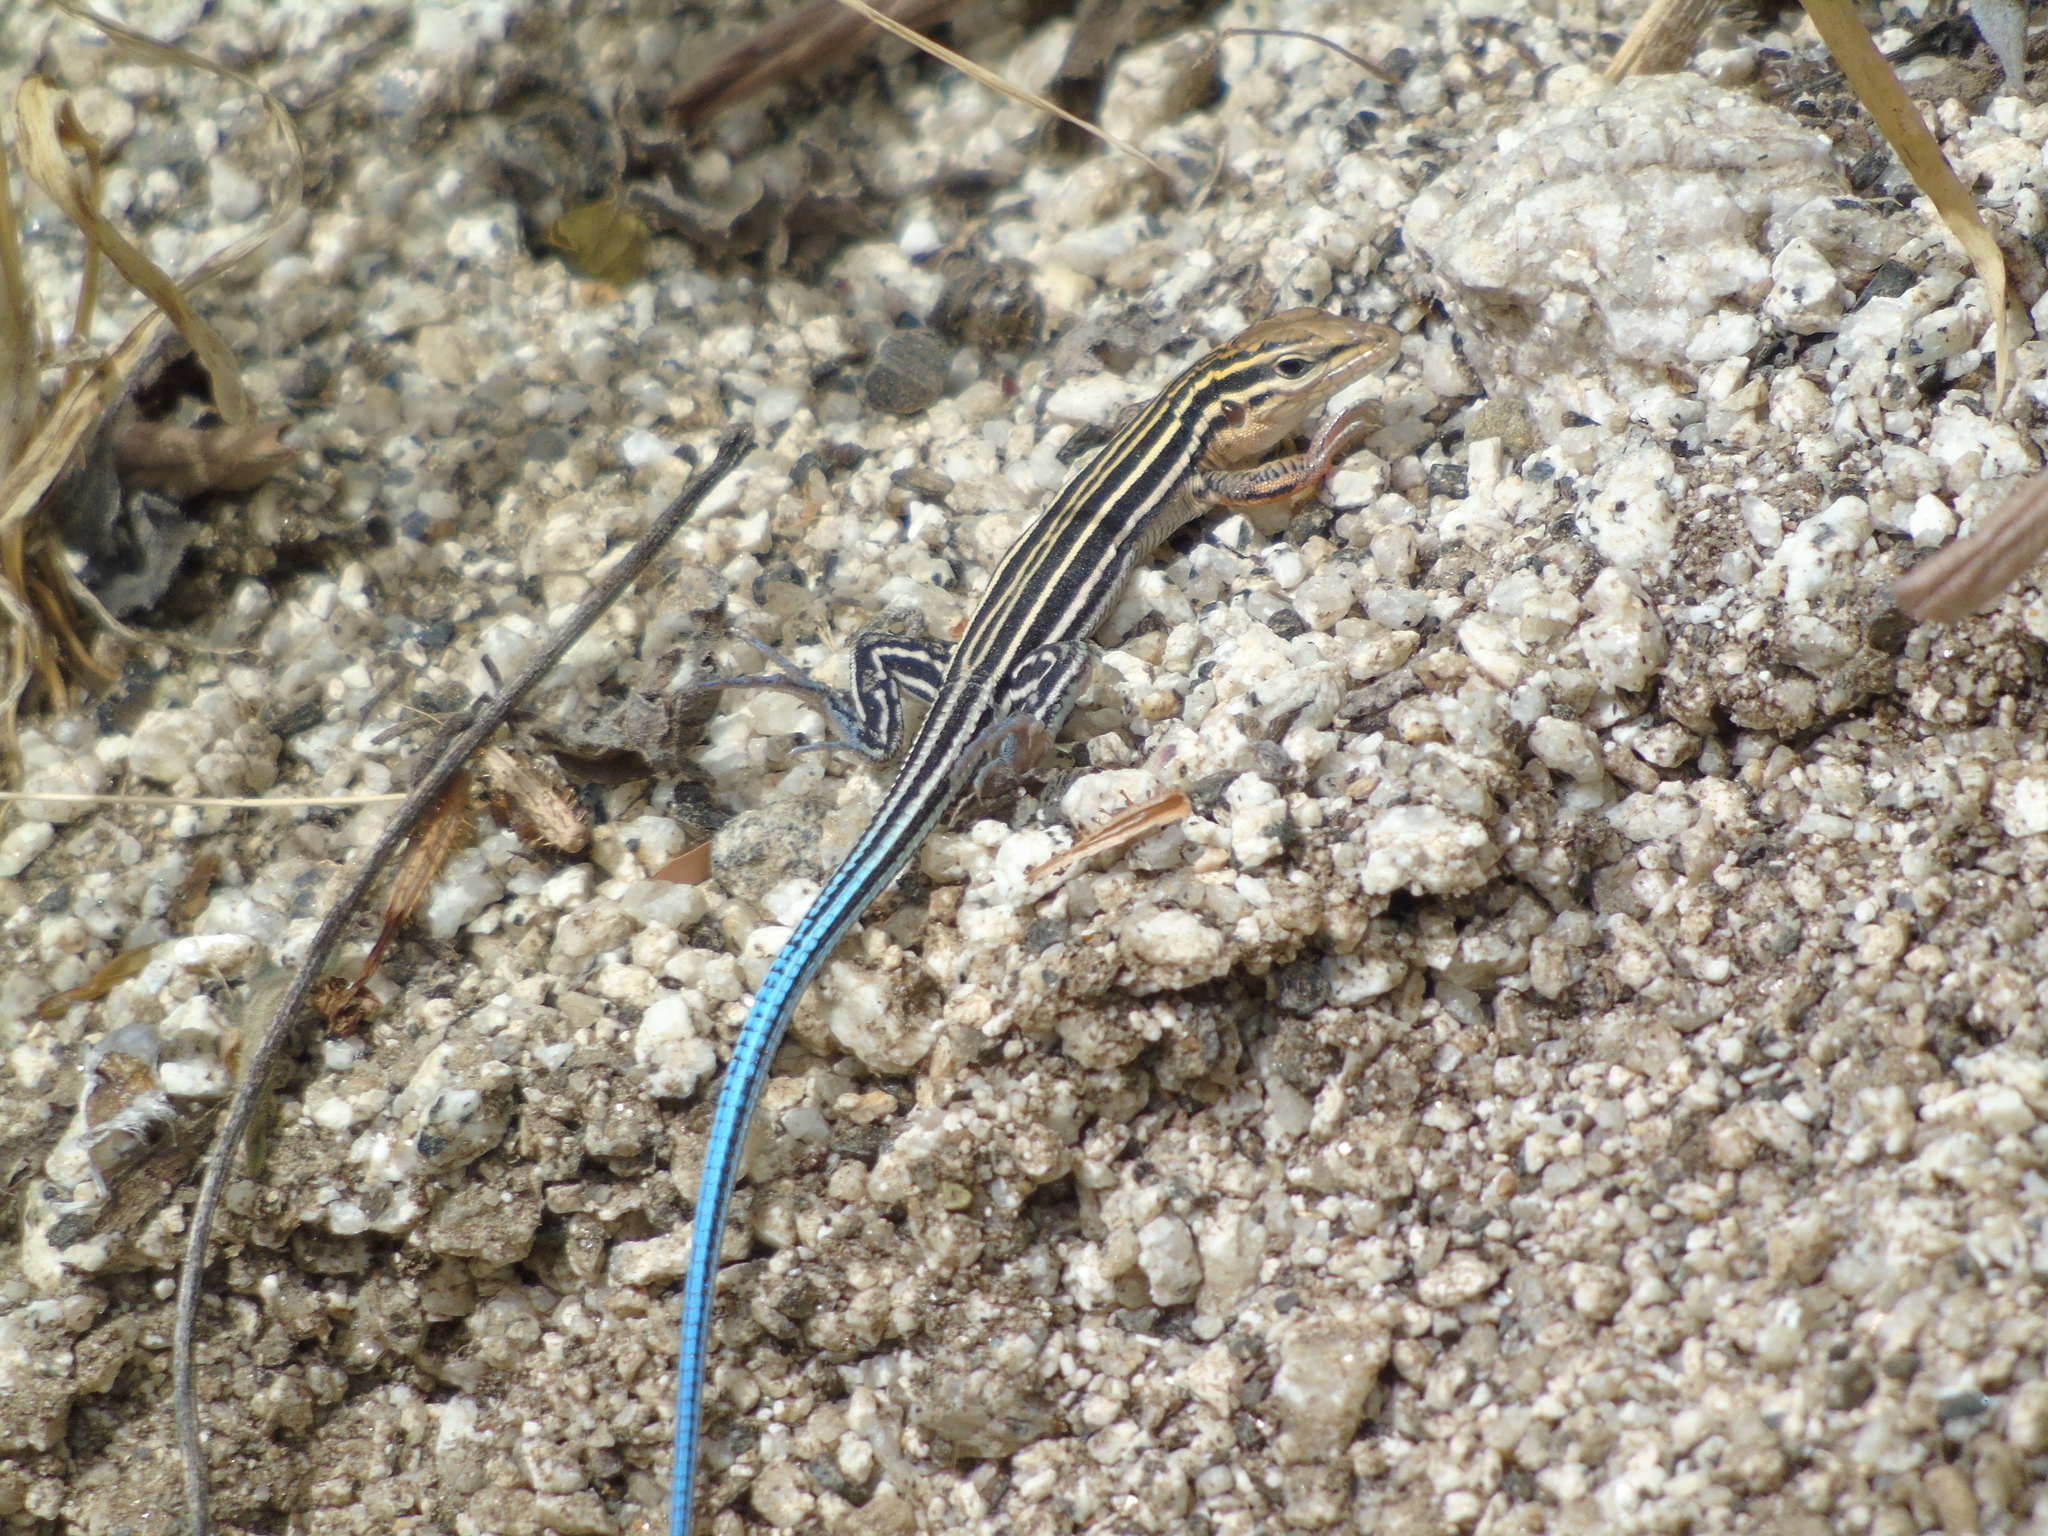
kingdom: Animalia
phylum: Chordata
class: Squamata
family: Teiidae
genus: Aspidoscelis
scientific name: Aspidoscelis hyperythrus
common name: Orange-throated race-runner
